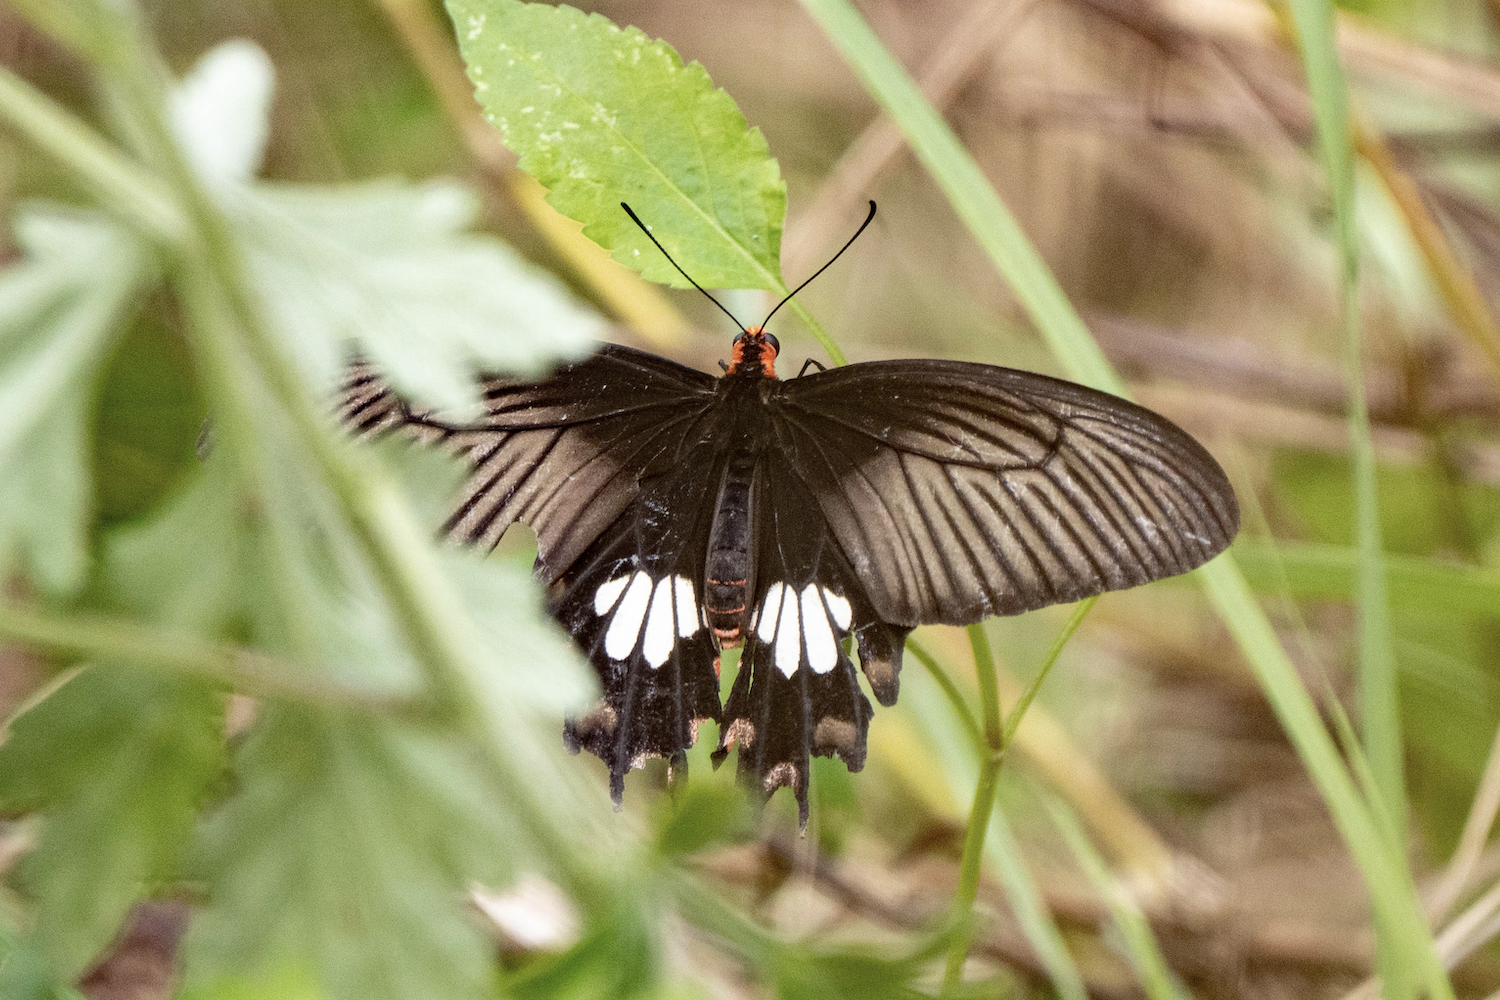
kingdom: Animalia
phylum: Arthropoda
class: Insecta
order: Lepidoptera
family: Papilionidae
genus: Pachliopta
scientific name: Pachliopta aristolochiae
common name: Common rose
